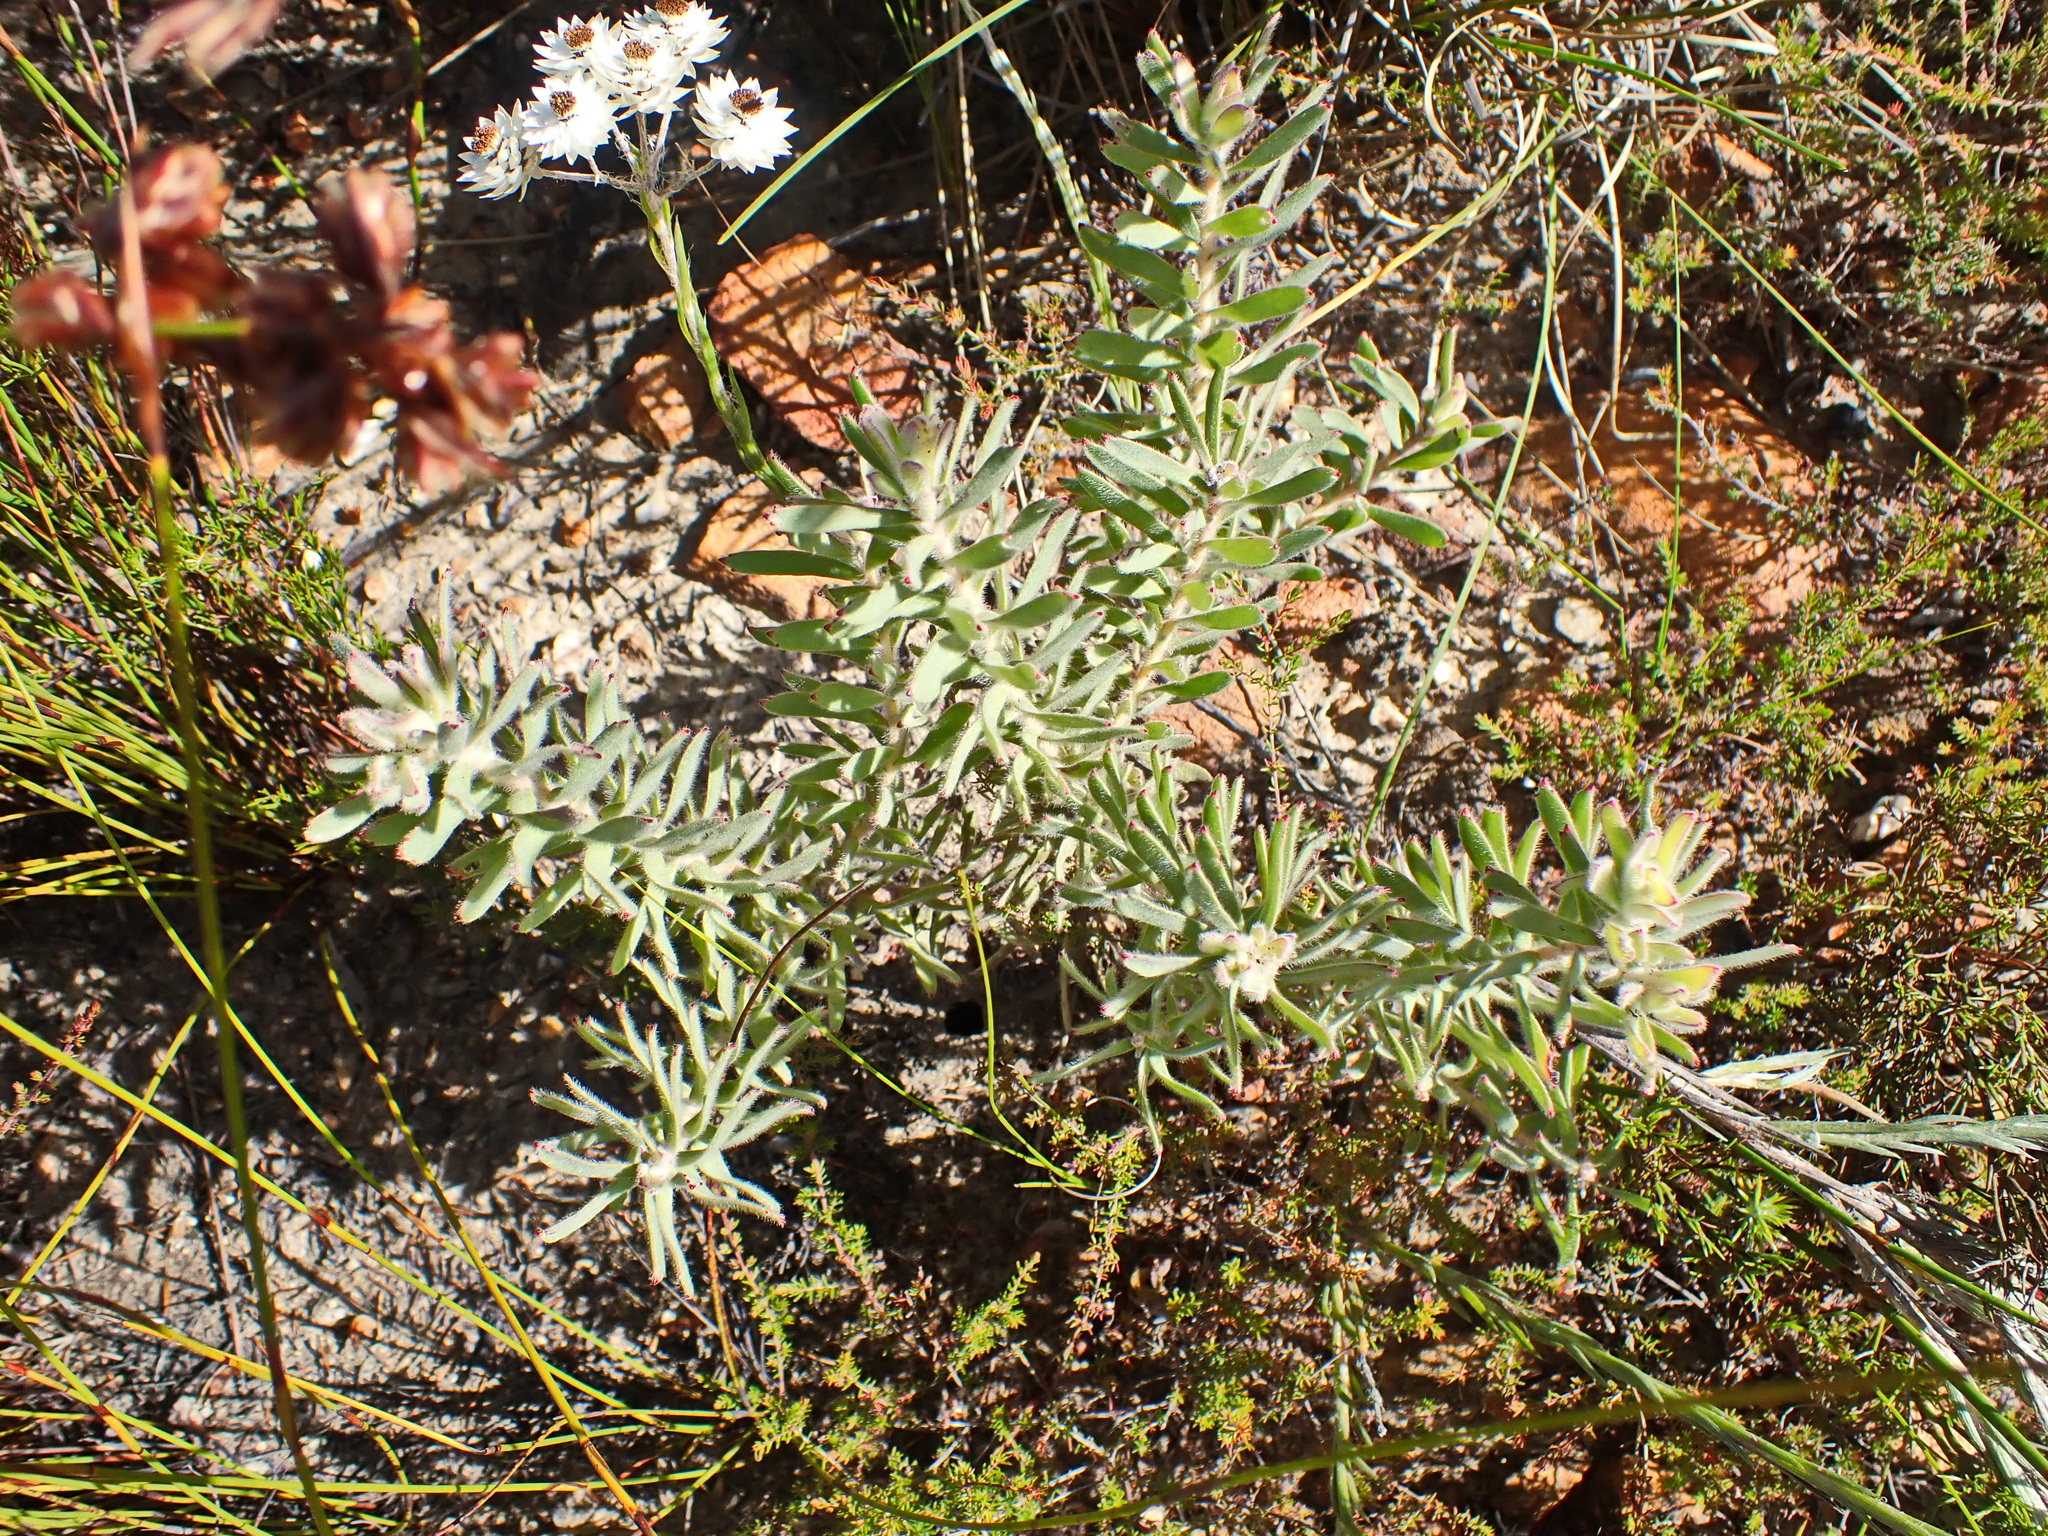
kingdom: Plantae
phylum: Tracheophyta
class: Magnoliopsida
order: Proteales
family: Proteaceae
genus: Leucadendron
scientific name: Leucadendron rubrum
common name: Spinning top
